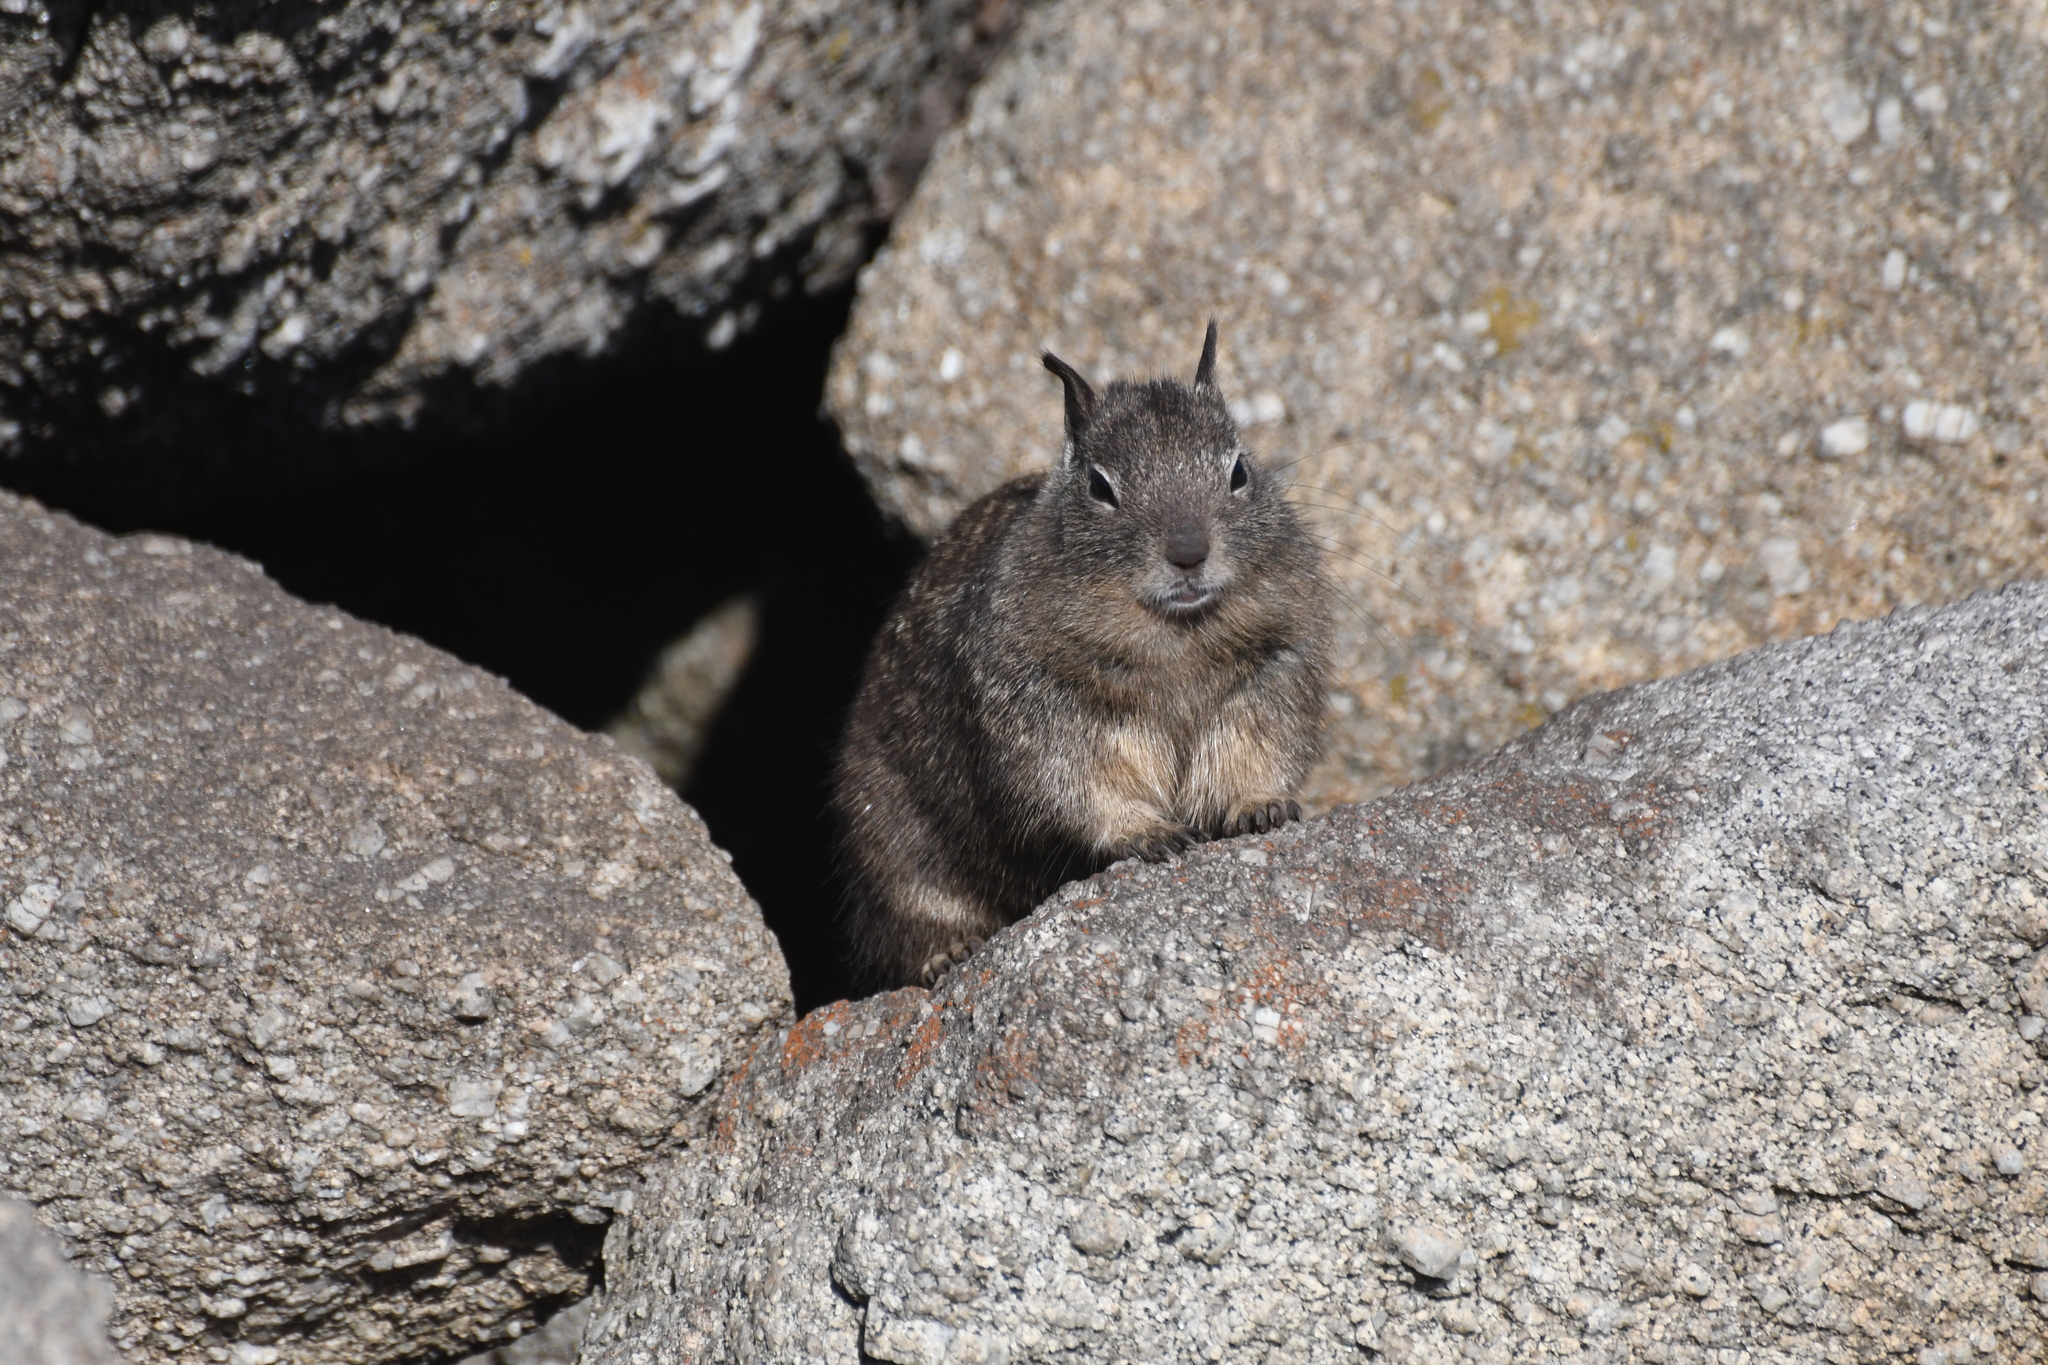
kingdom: Animalia
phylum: Chordata
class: Mammalia
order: Rodentia
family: Sciuridae
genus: Otospermophilus
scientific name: Otospermophilus beecheyi
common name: California ground squirrel
